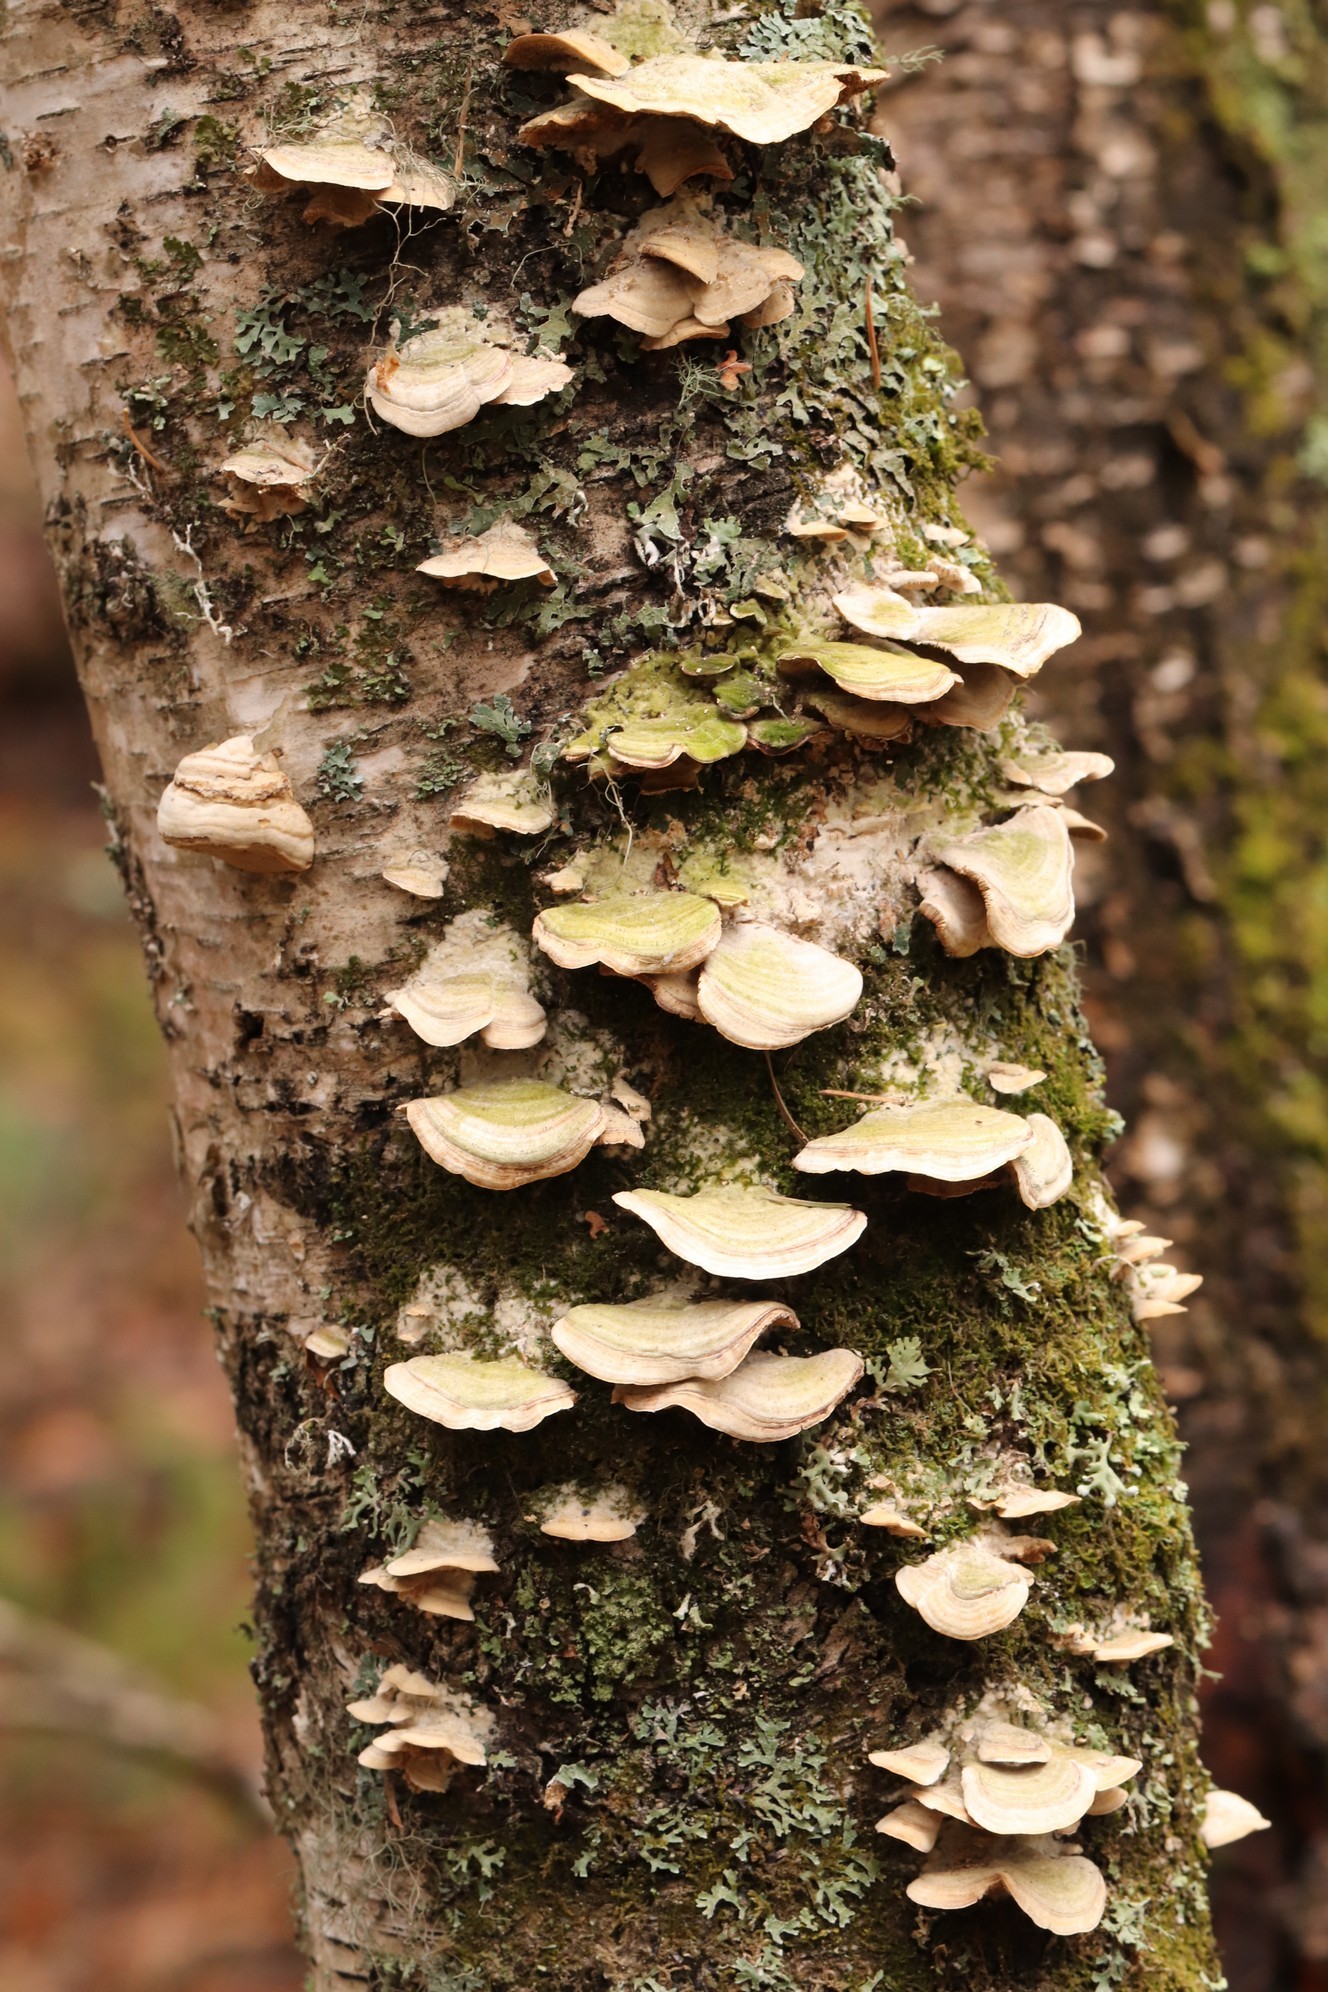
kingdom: Fungi
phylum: Basidiomycota
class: Agaricomycetes
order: Hymenochaetales
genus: Trichaptum
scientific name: Trichaptum biforme
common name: Violet-toothed polypore
